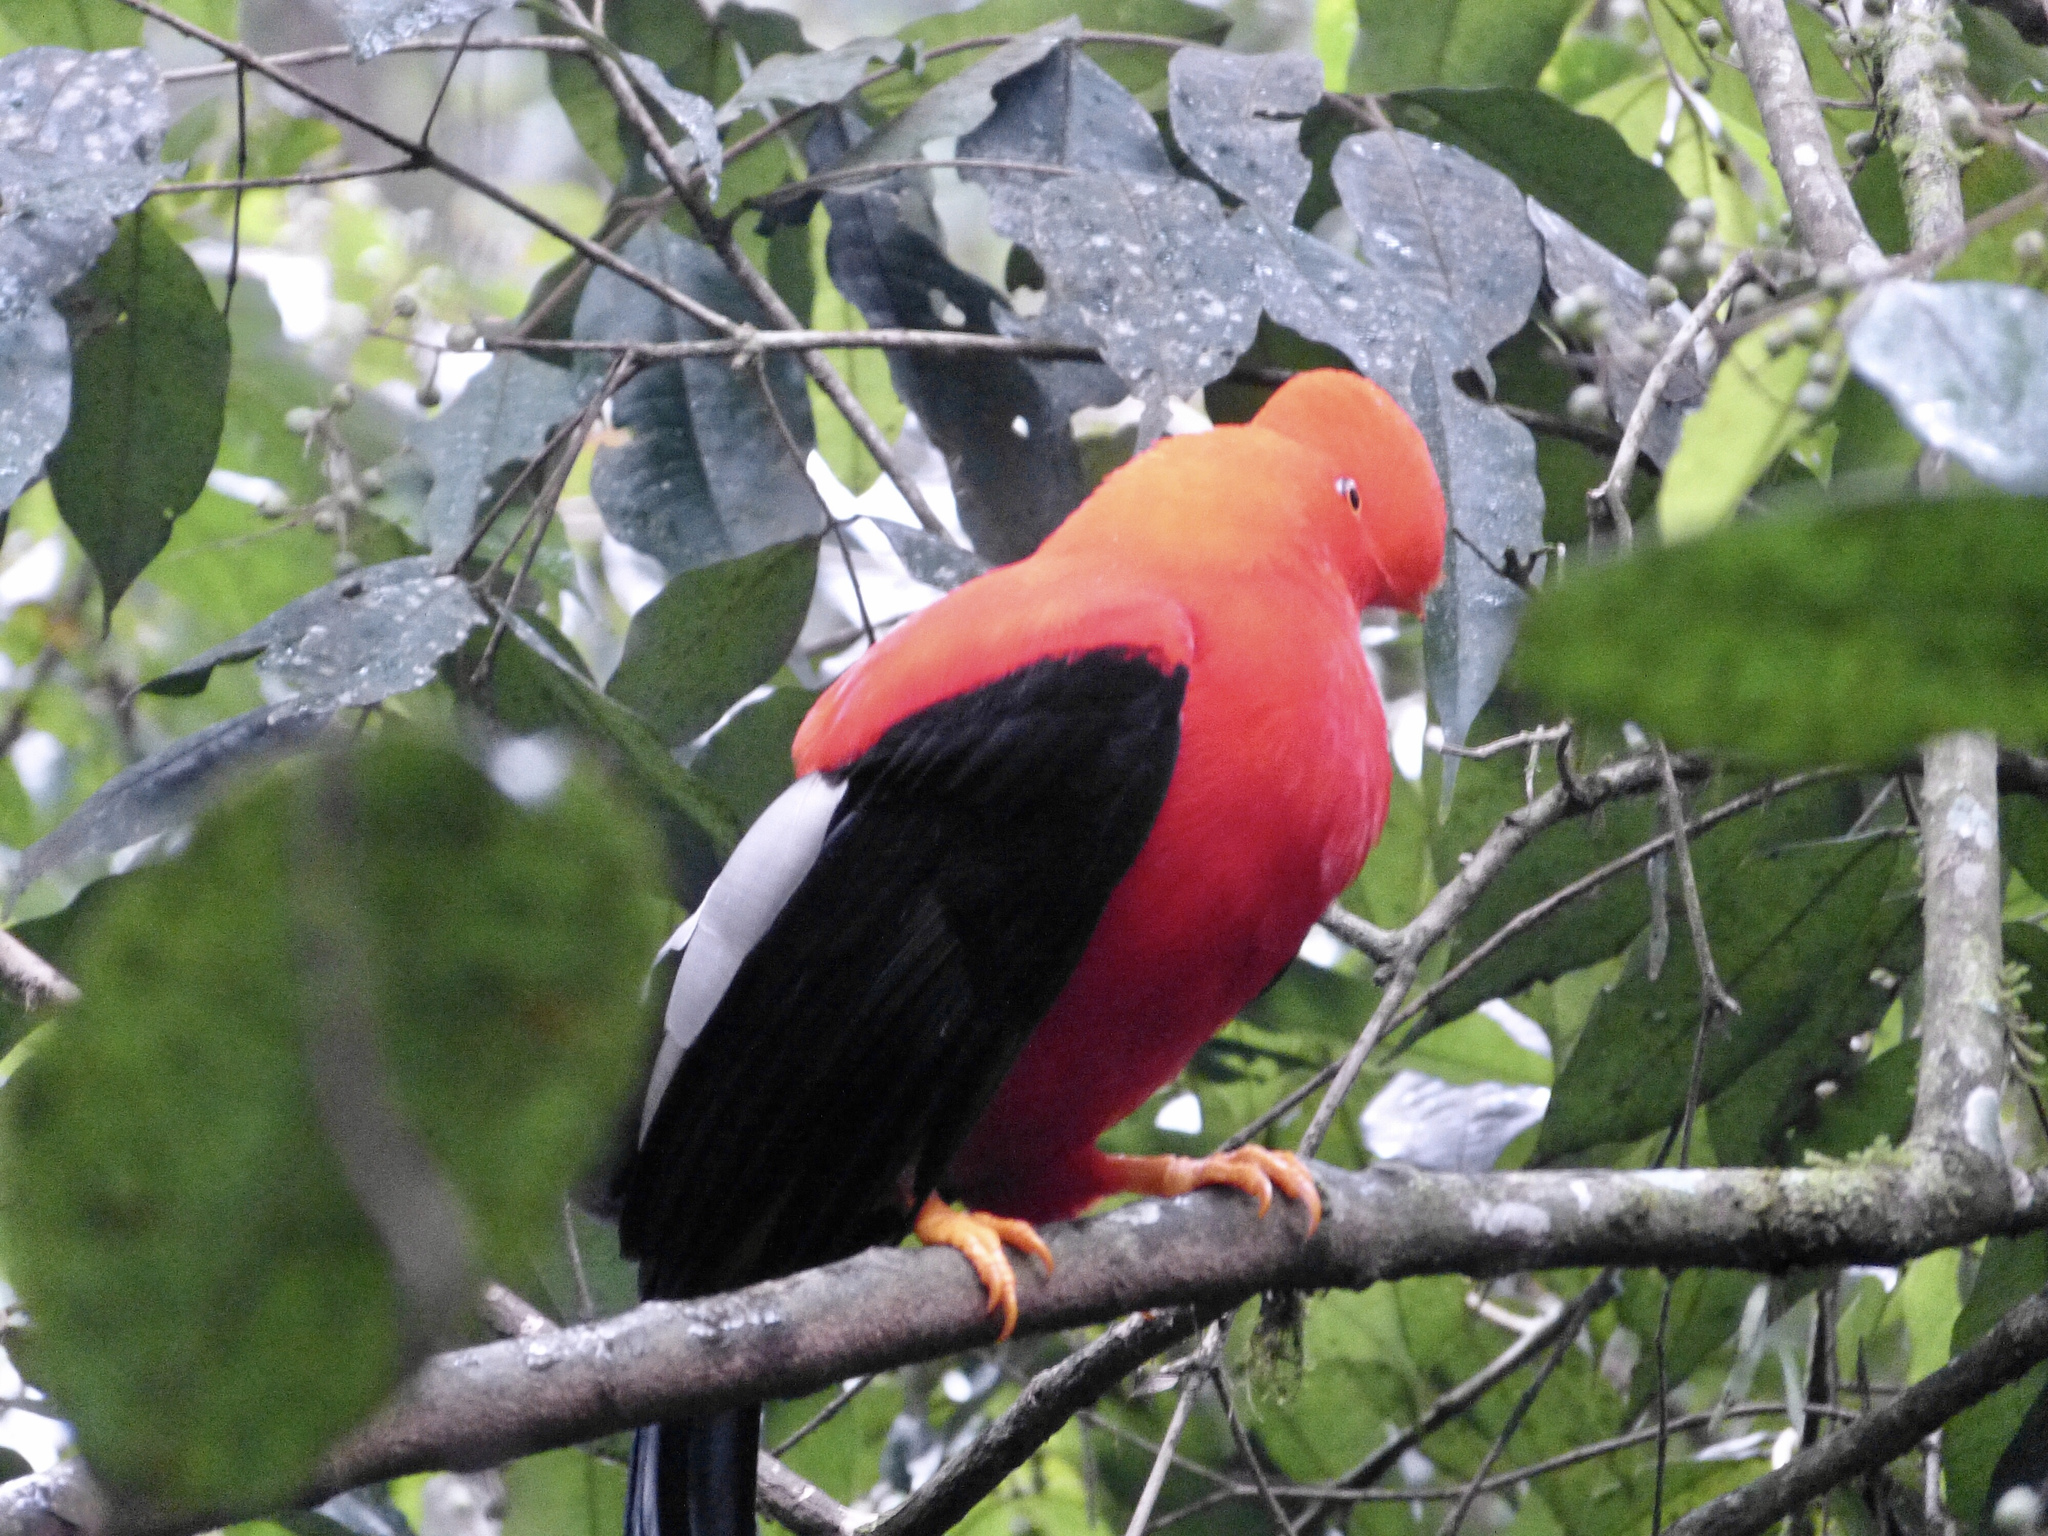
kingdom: Animalia
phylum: Chordata
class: Aves
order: Passeriformes
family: Cotingidae
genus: Rupicola
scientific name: Rupicola peruvianus
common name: Andean cock-of-the-rock
